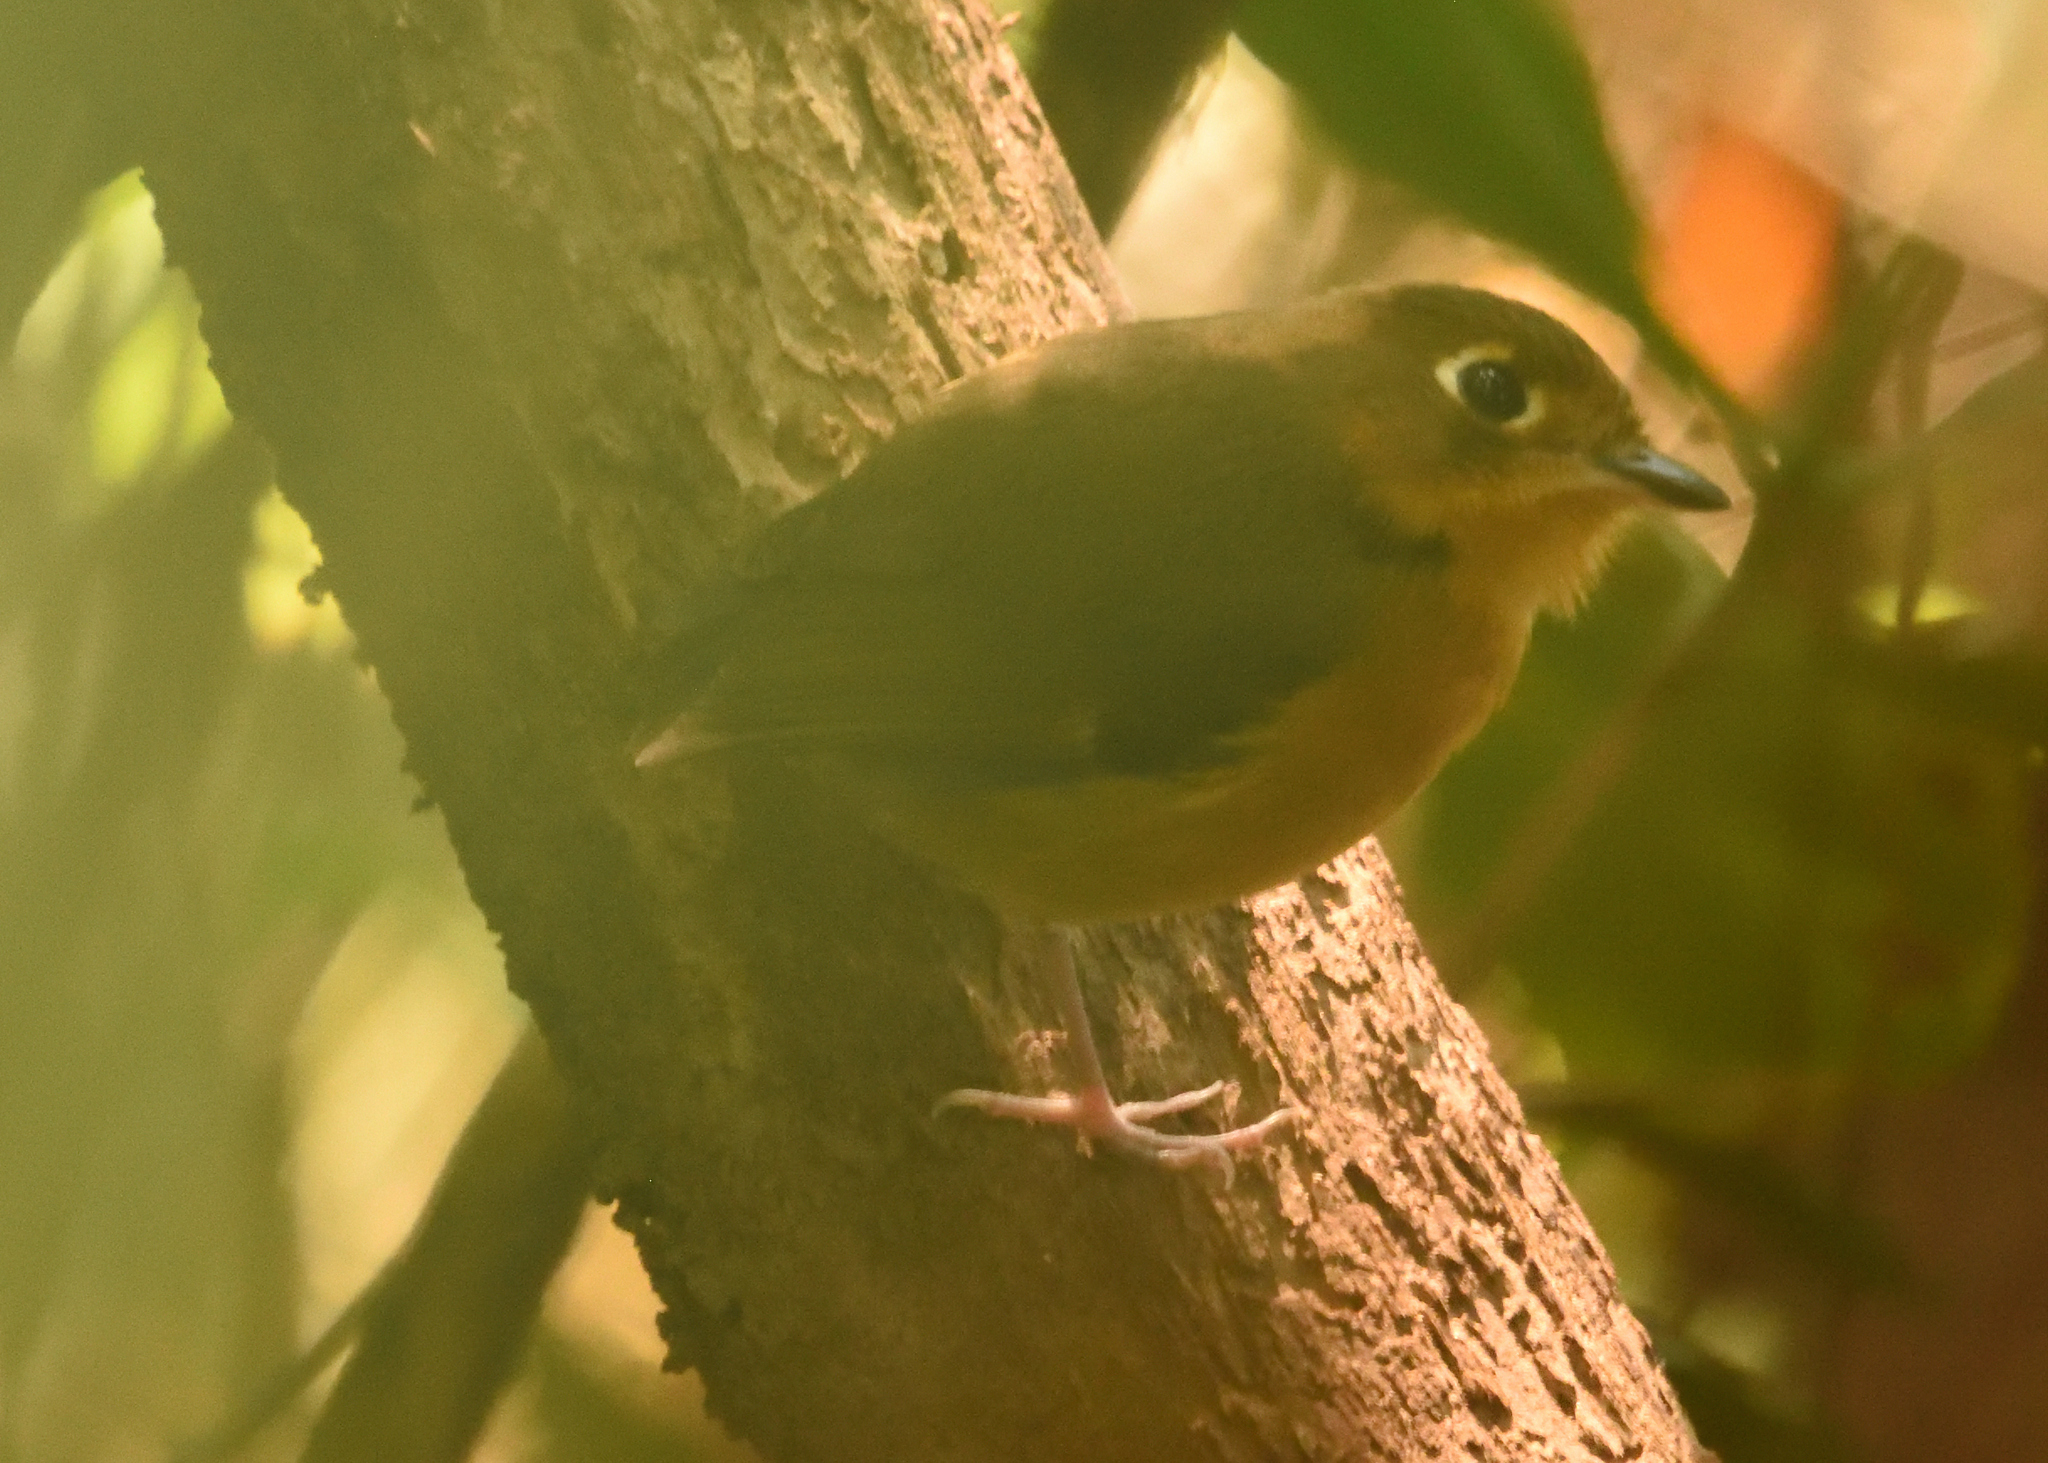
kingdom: Animalia
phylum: Chordata
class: Aves
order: Passeriformes
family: Grallariidae
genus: Grallaricula
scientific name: Grallaricula ferrugineipectus
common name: Rusty-breasted antpitta
